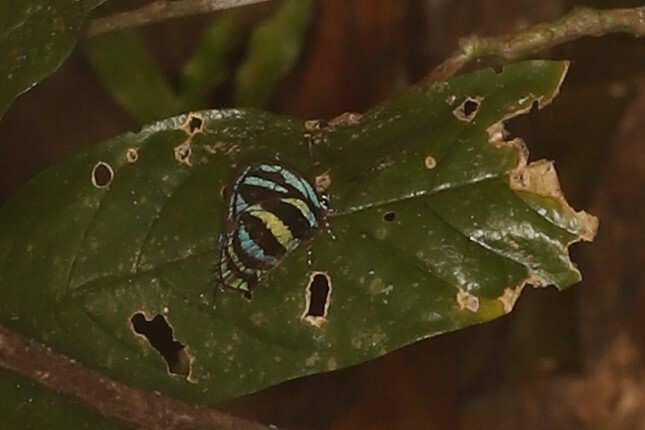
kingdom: Animalia
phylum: Arthropoda
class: Insecta
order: Lepidoptera
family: Lycaenidae
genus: Thecla
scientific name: Thecla selina
